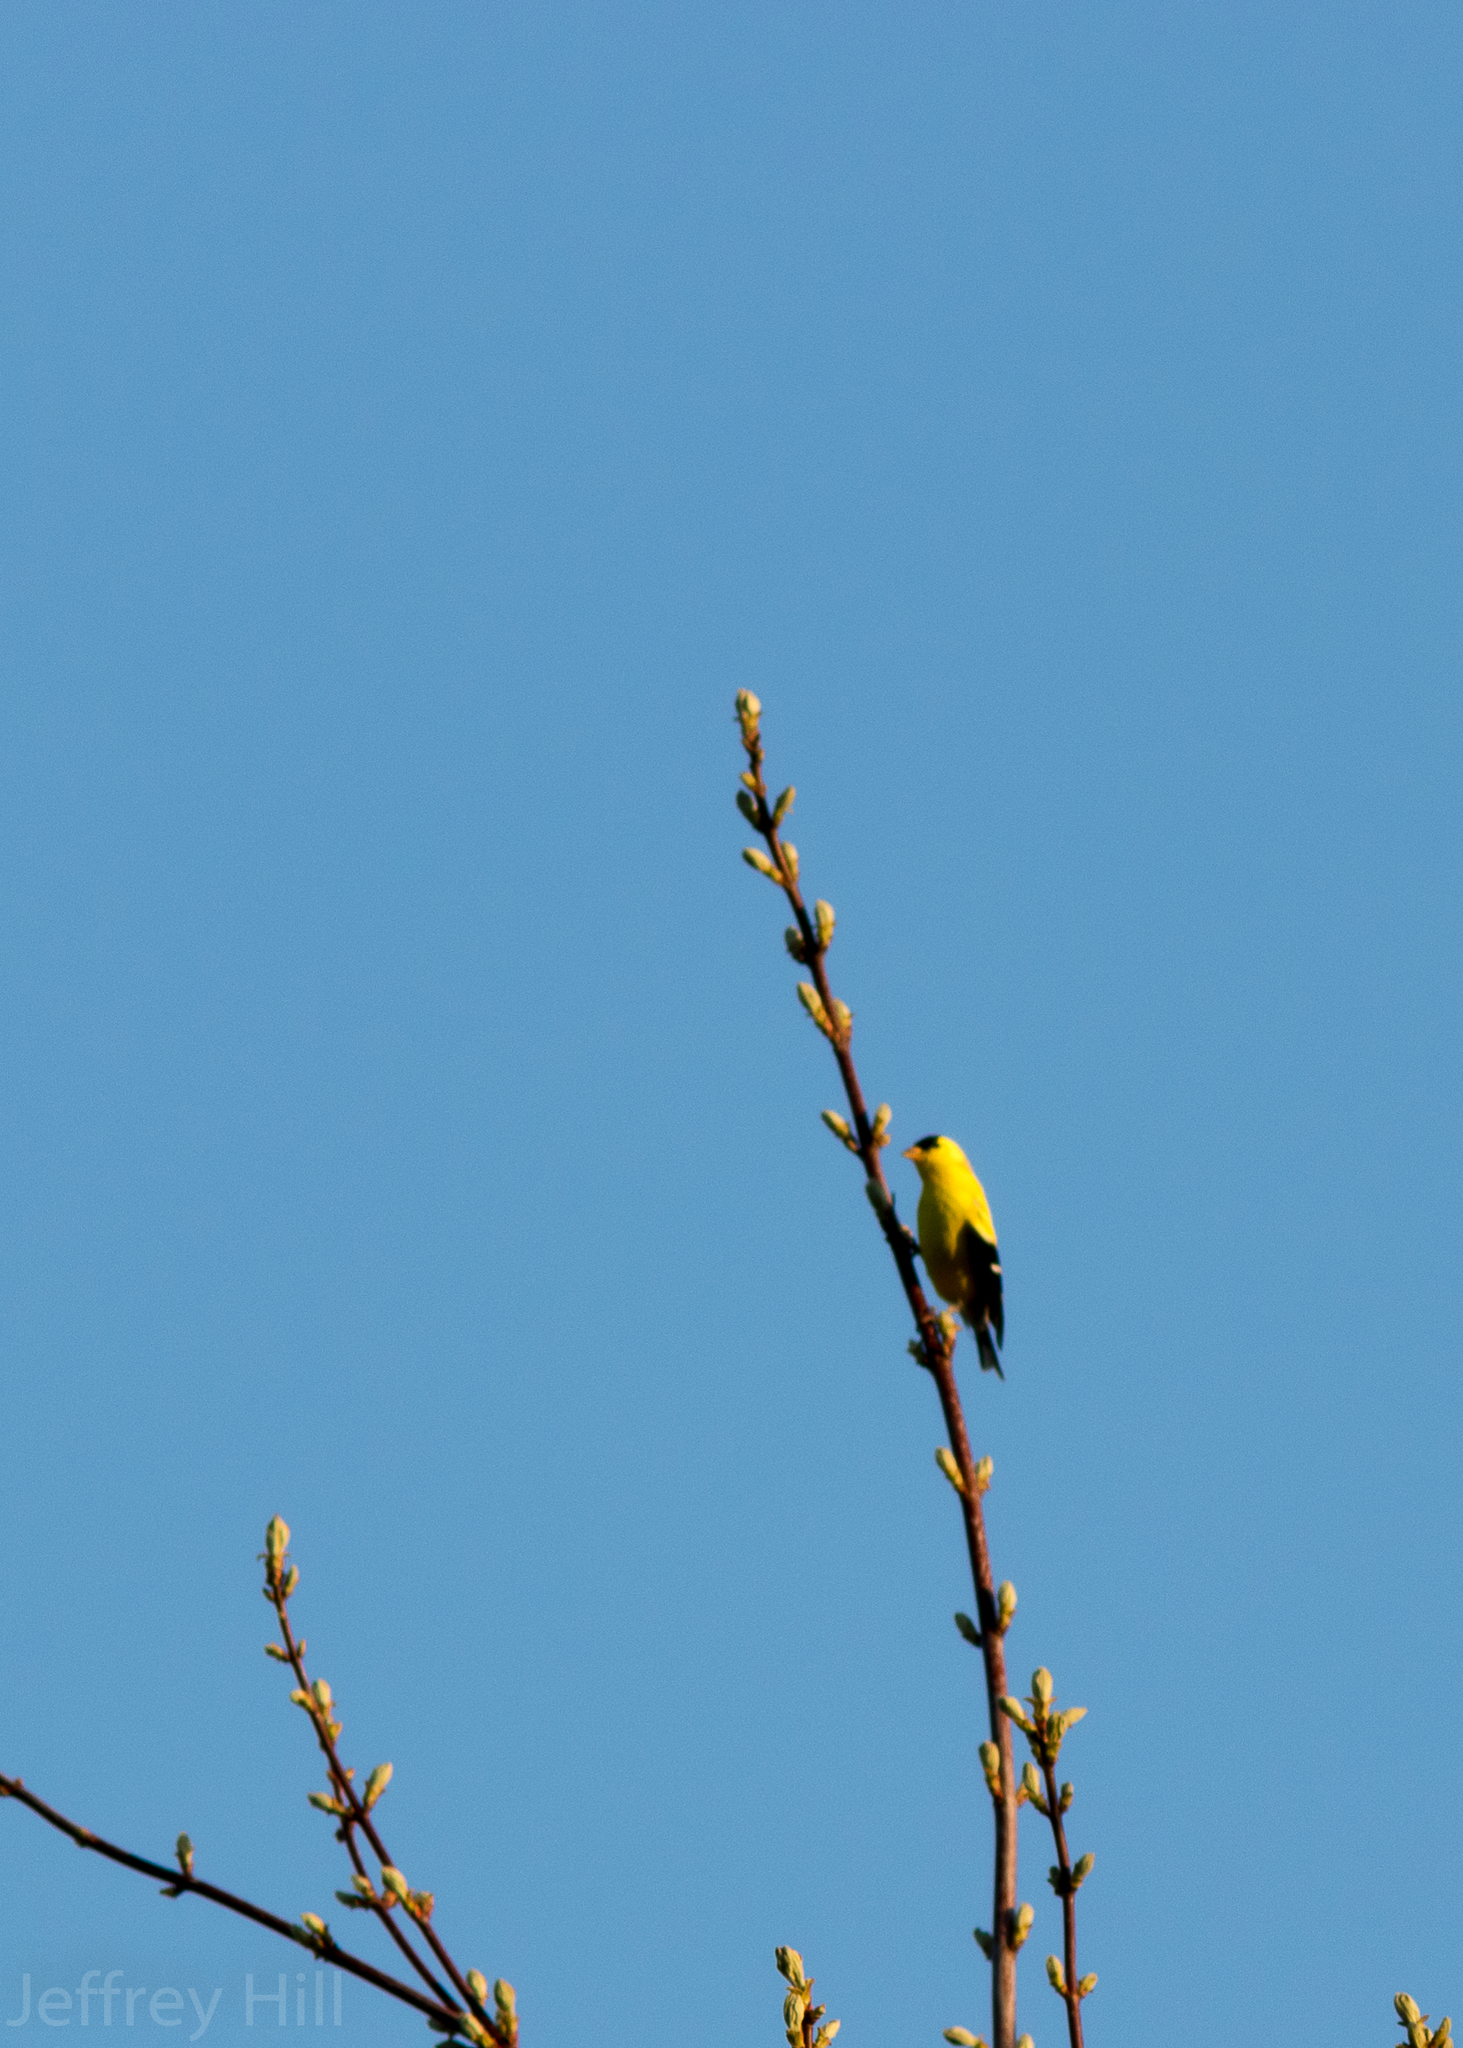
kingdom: Animalia
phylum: Chordata
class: Aves
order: Passeriformes
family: Fringillidae
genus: Spinus
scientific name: Spinus tristis
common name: American goldfinch
